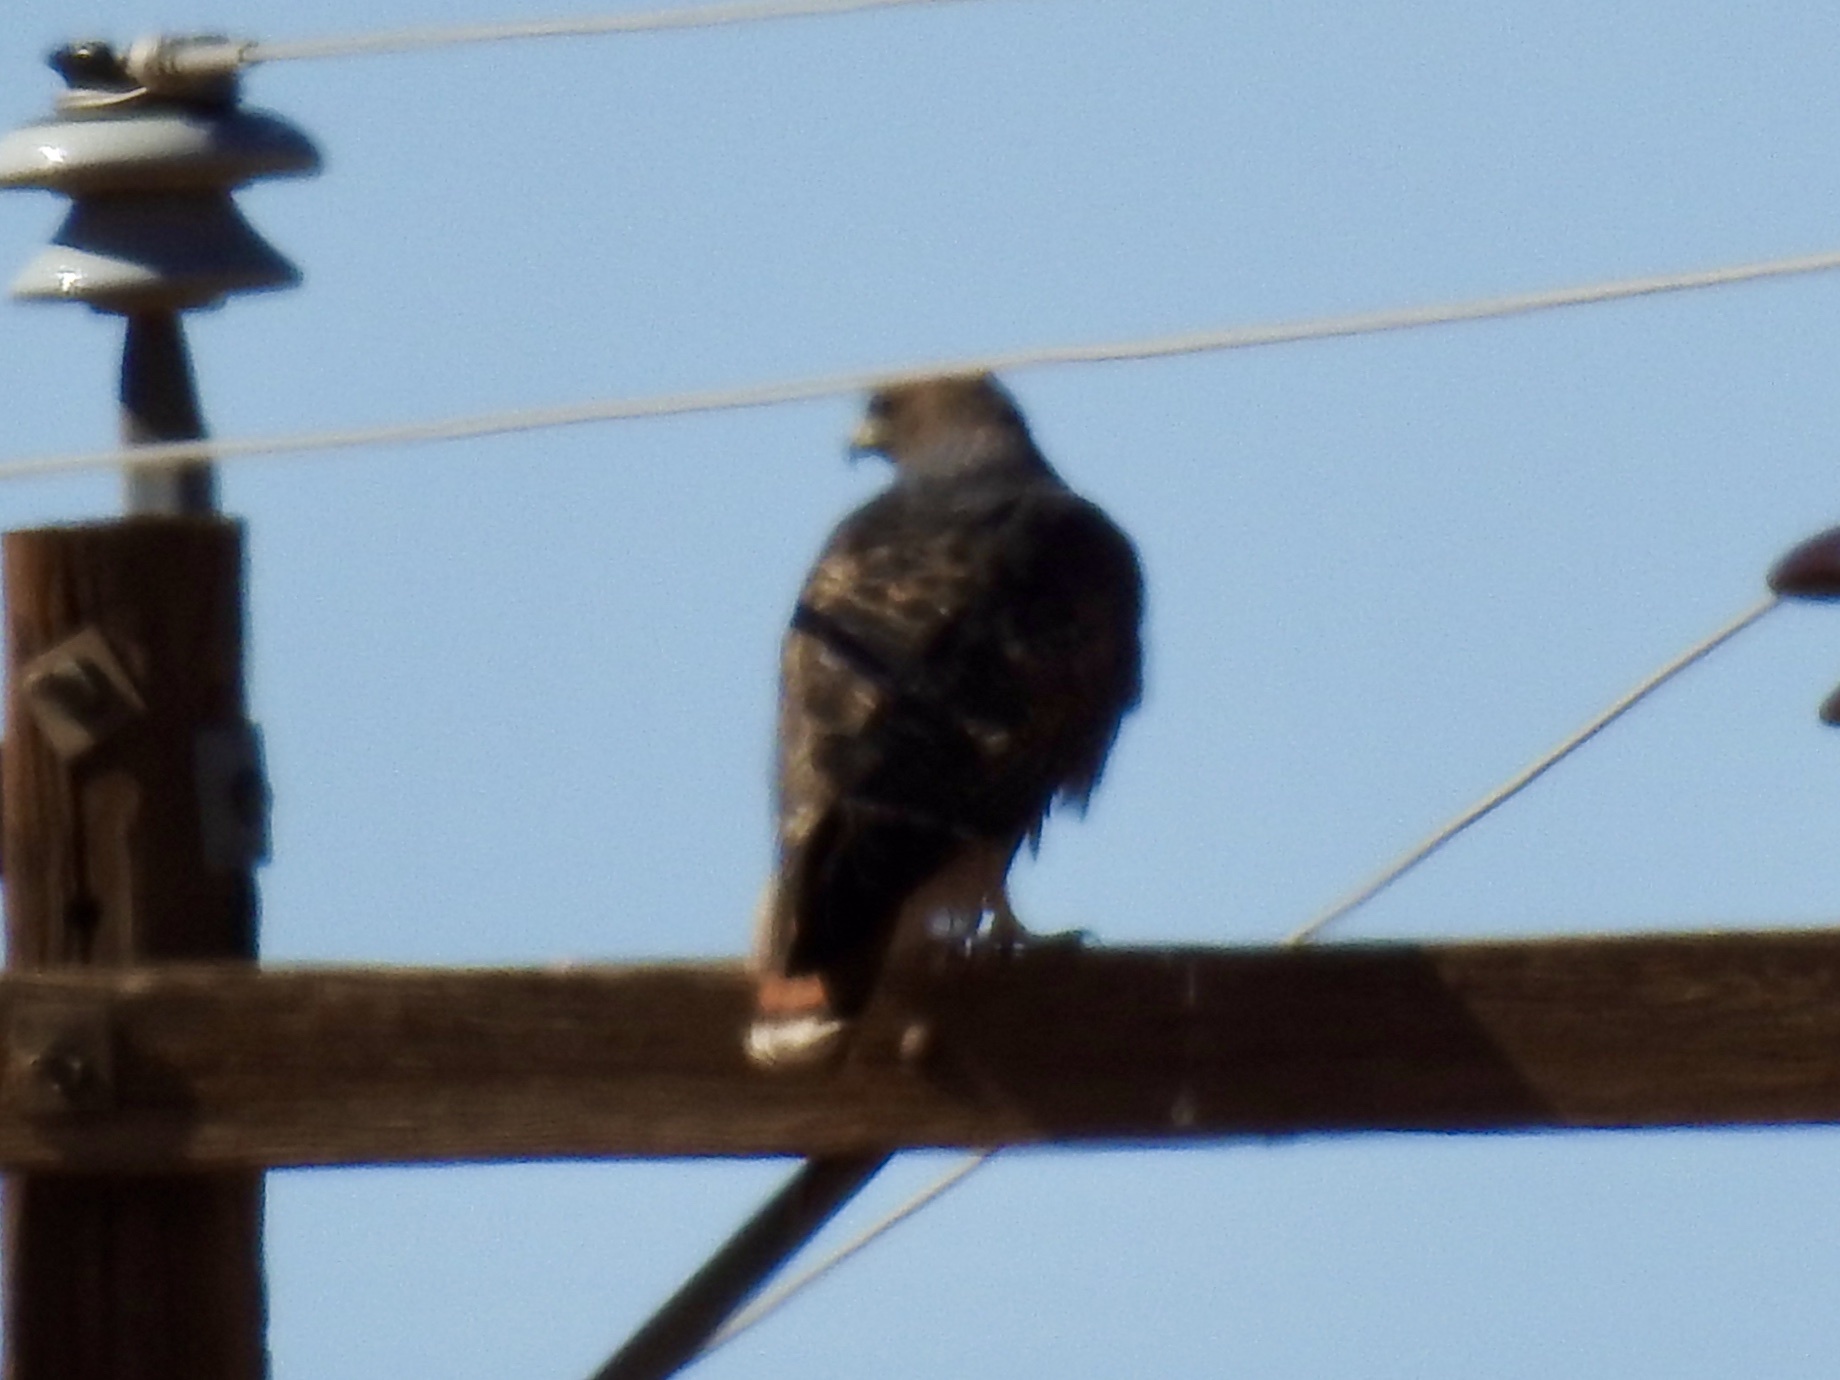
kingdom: Animalia
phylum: Chordata
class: Aves
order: Accipitriformes
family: Accipitridae
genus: Buteo
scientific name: Buteo jamaicensis
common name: Red-tailed hawk
